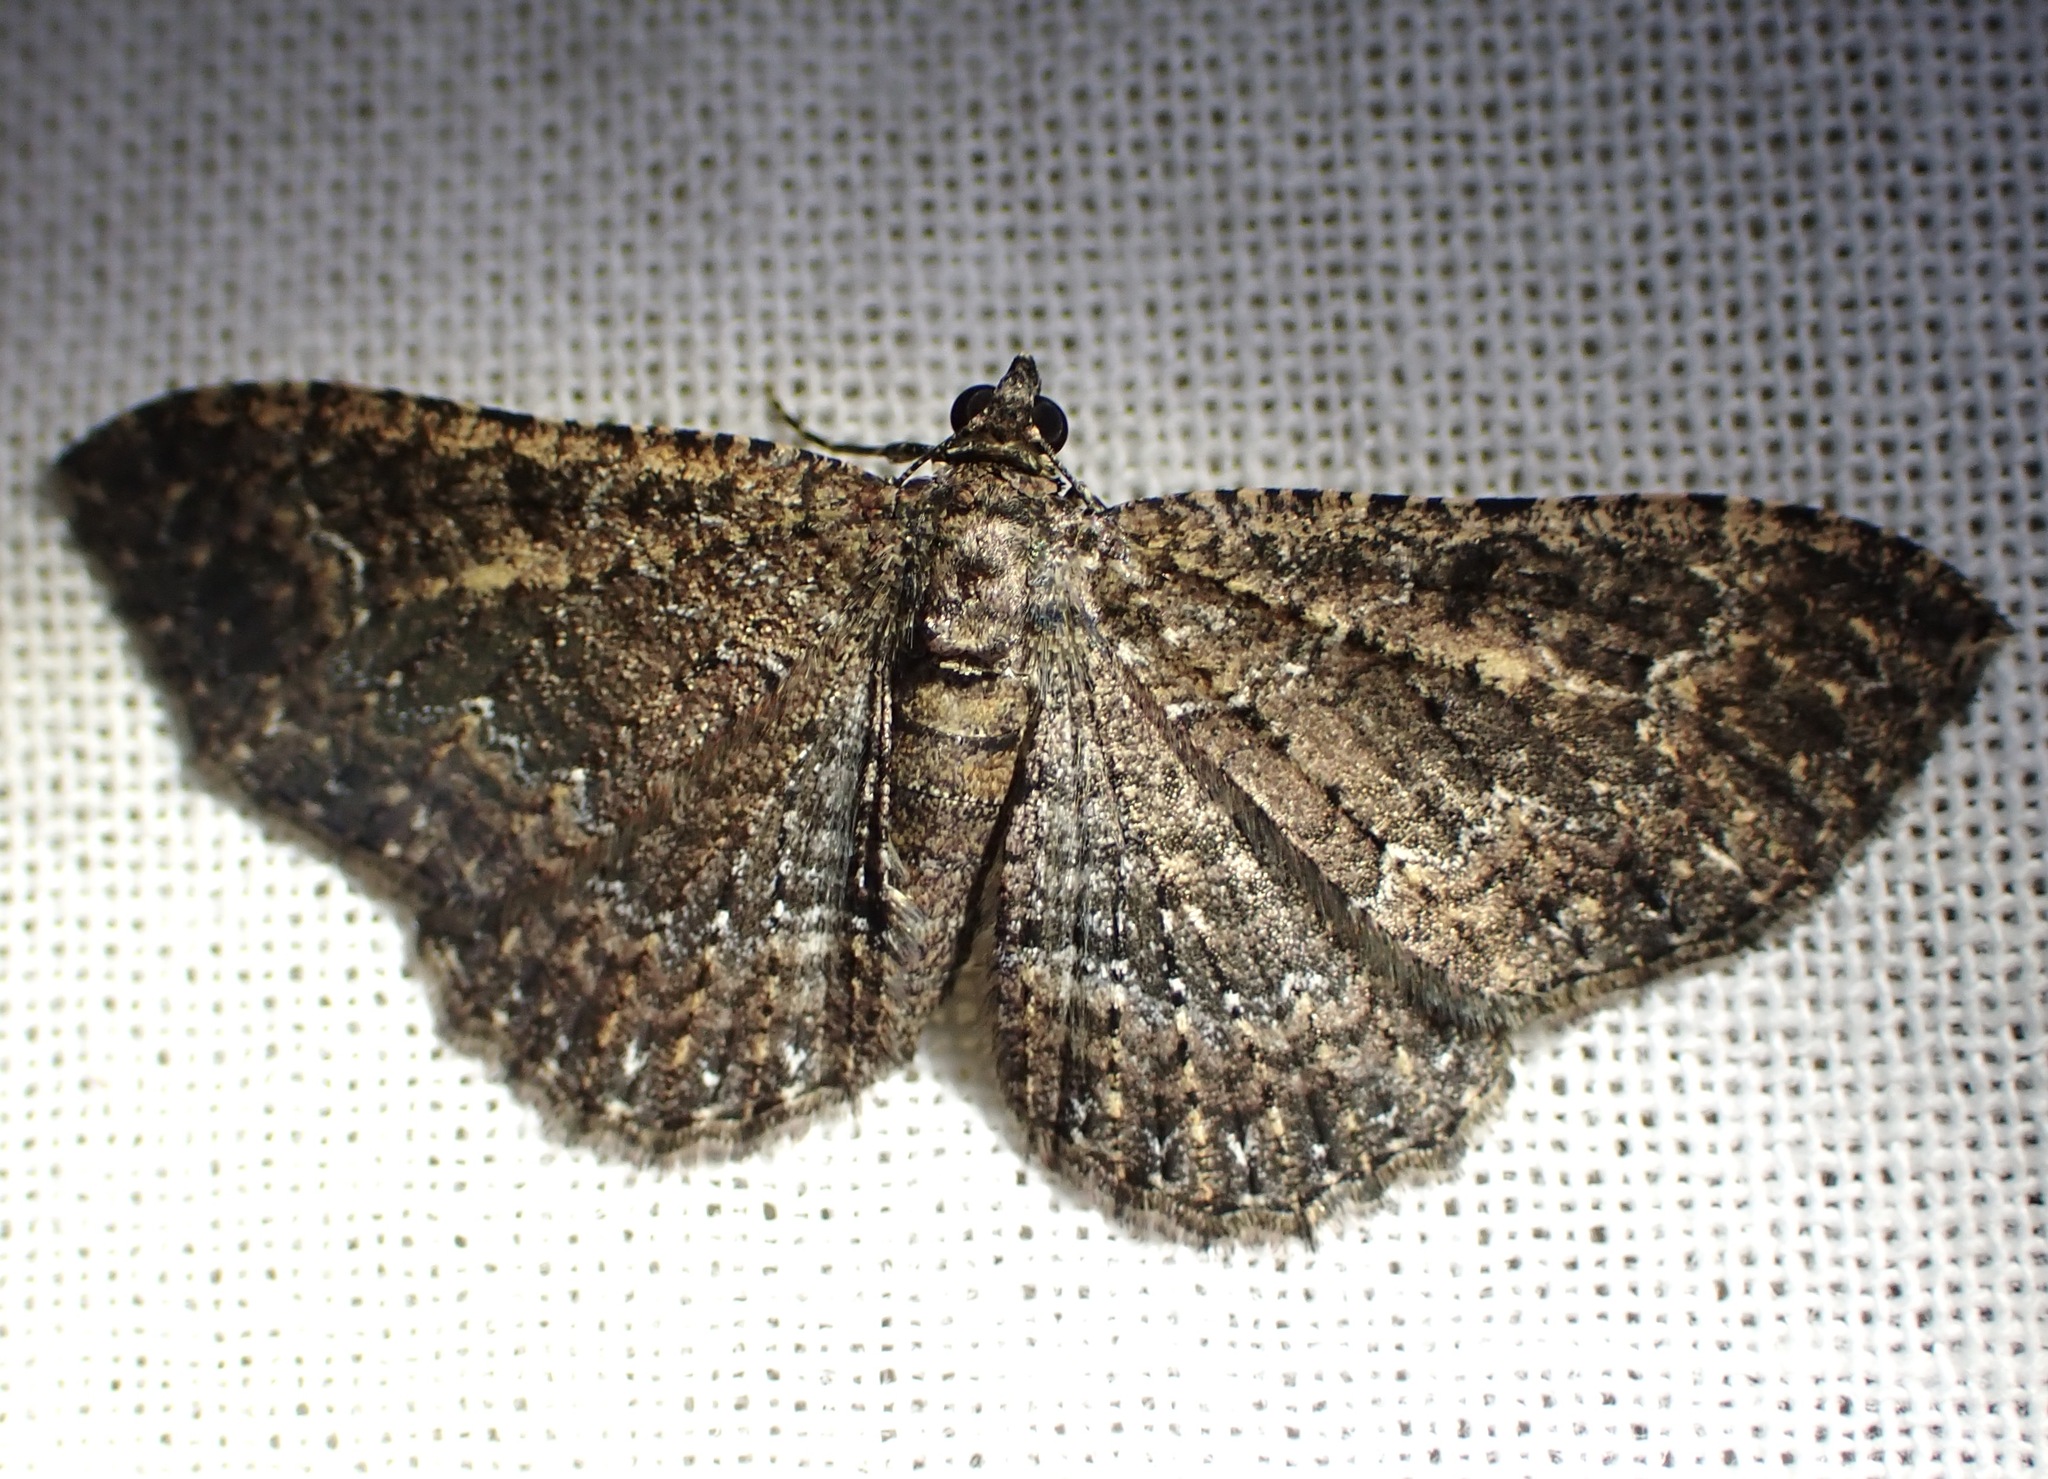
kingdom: Animalia
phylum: Arthropoda
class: Insecta
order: Lepidoptera
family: Geometridae
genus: Disclisioprocta
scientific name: Disclisioprocta stellata
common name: Somber carpet
